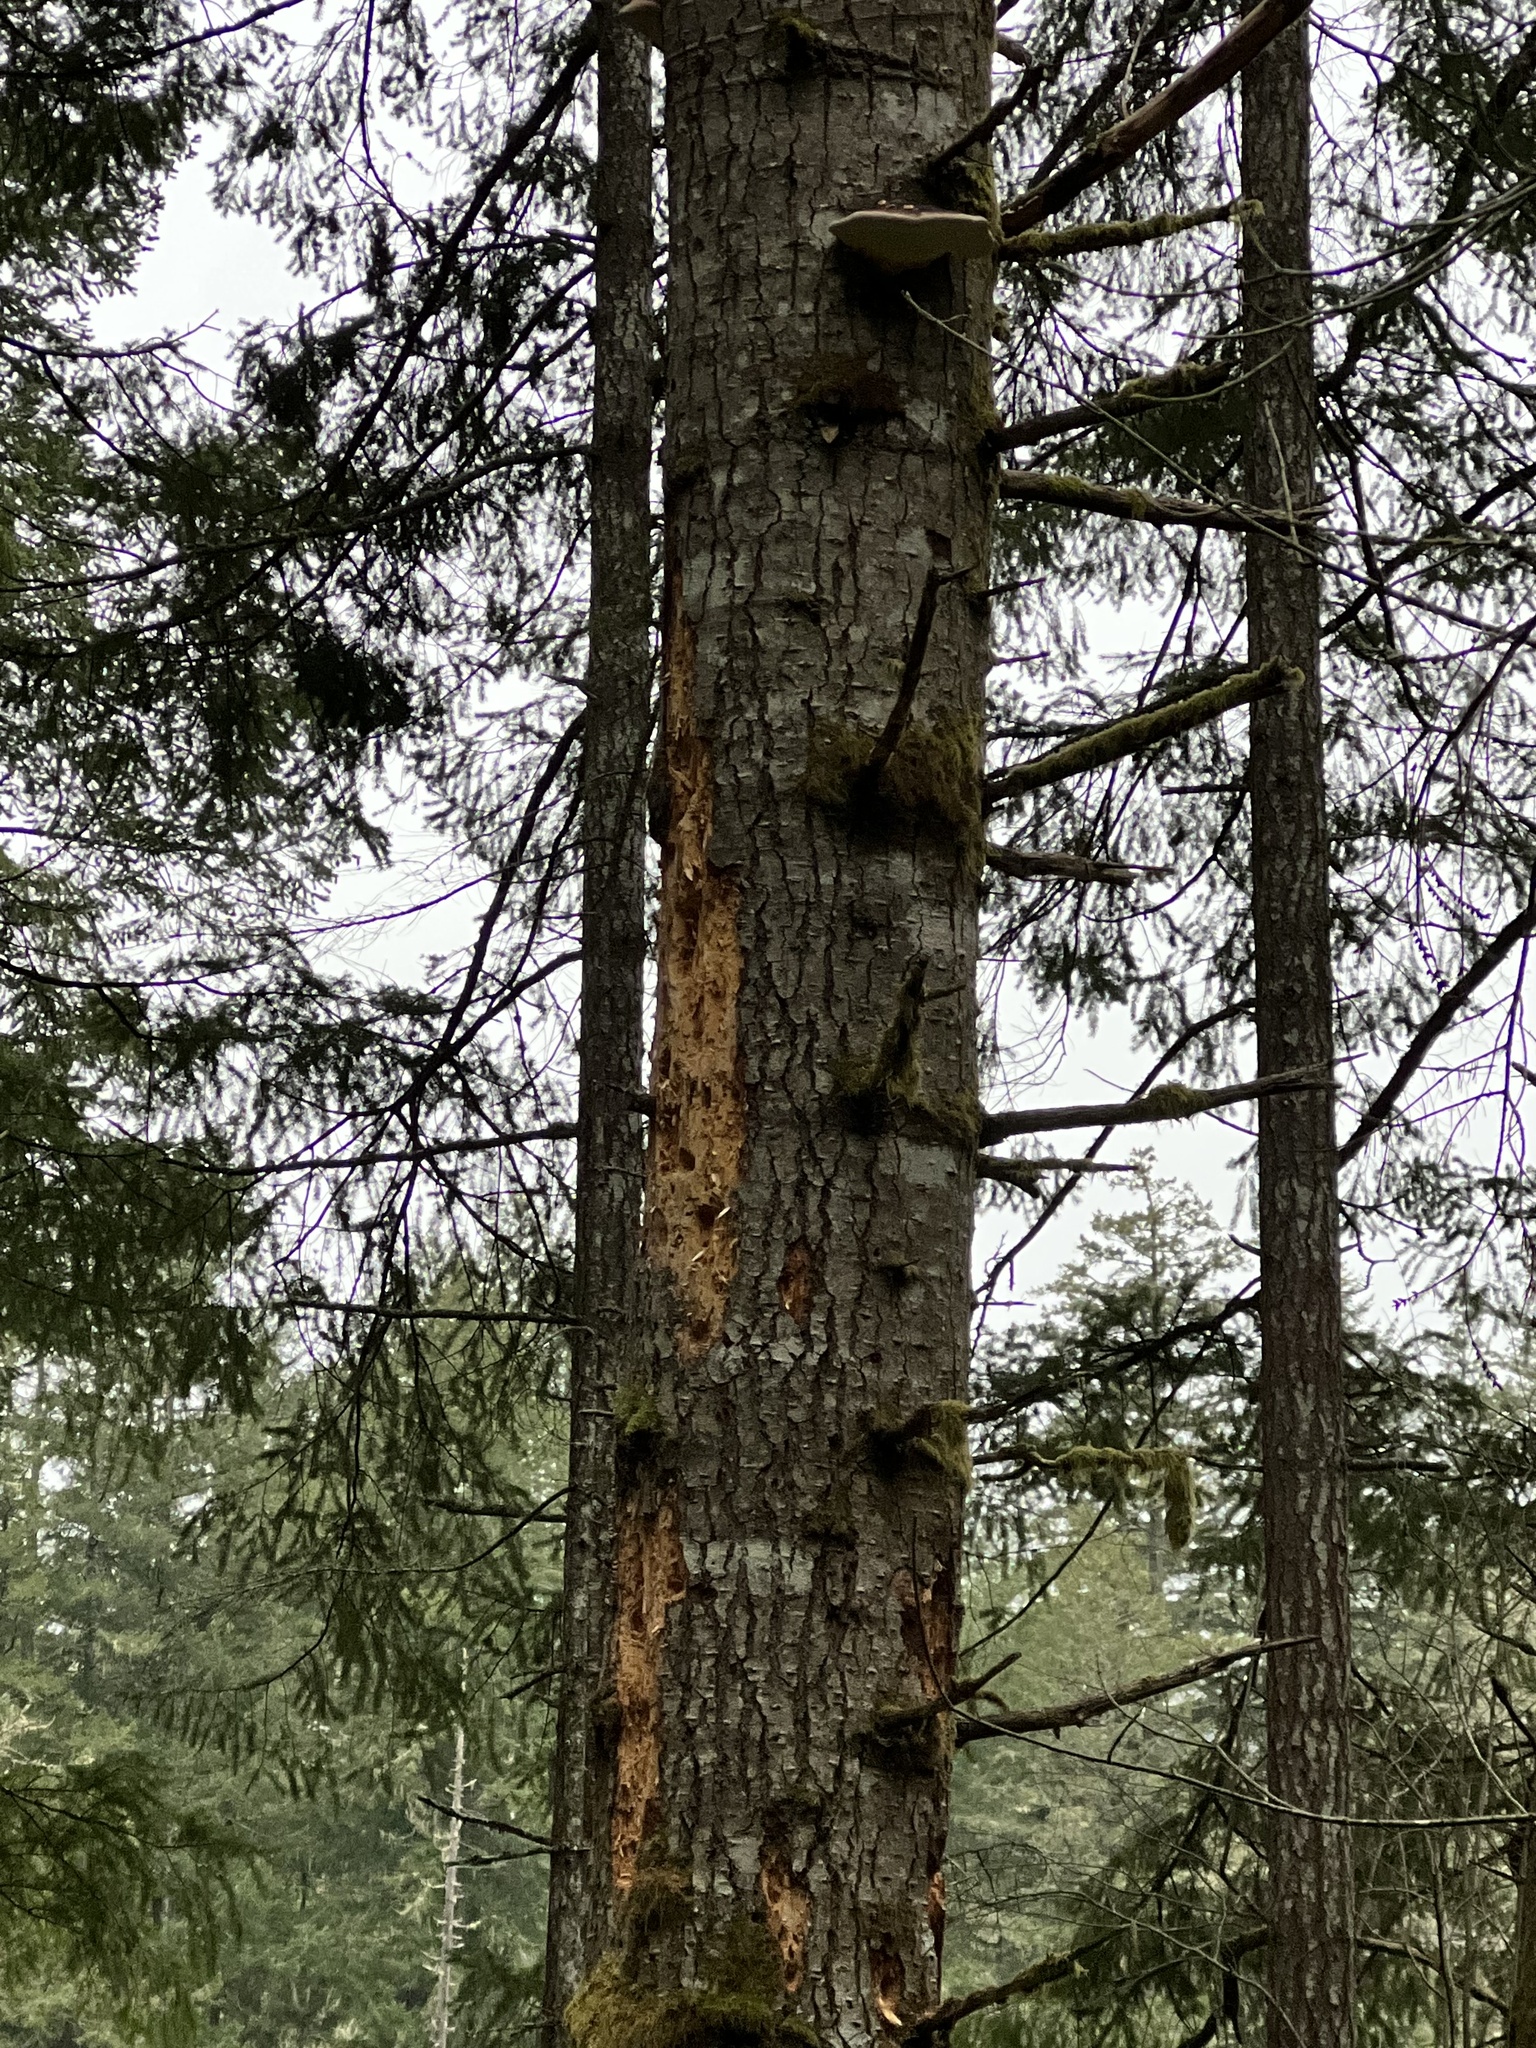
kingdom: Animalia
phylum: Chordata
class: Aves
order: Piciformes
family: Picidae
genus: Dryocopus
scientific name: Dryocopus pileatus
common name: Pileated woodpecker
